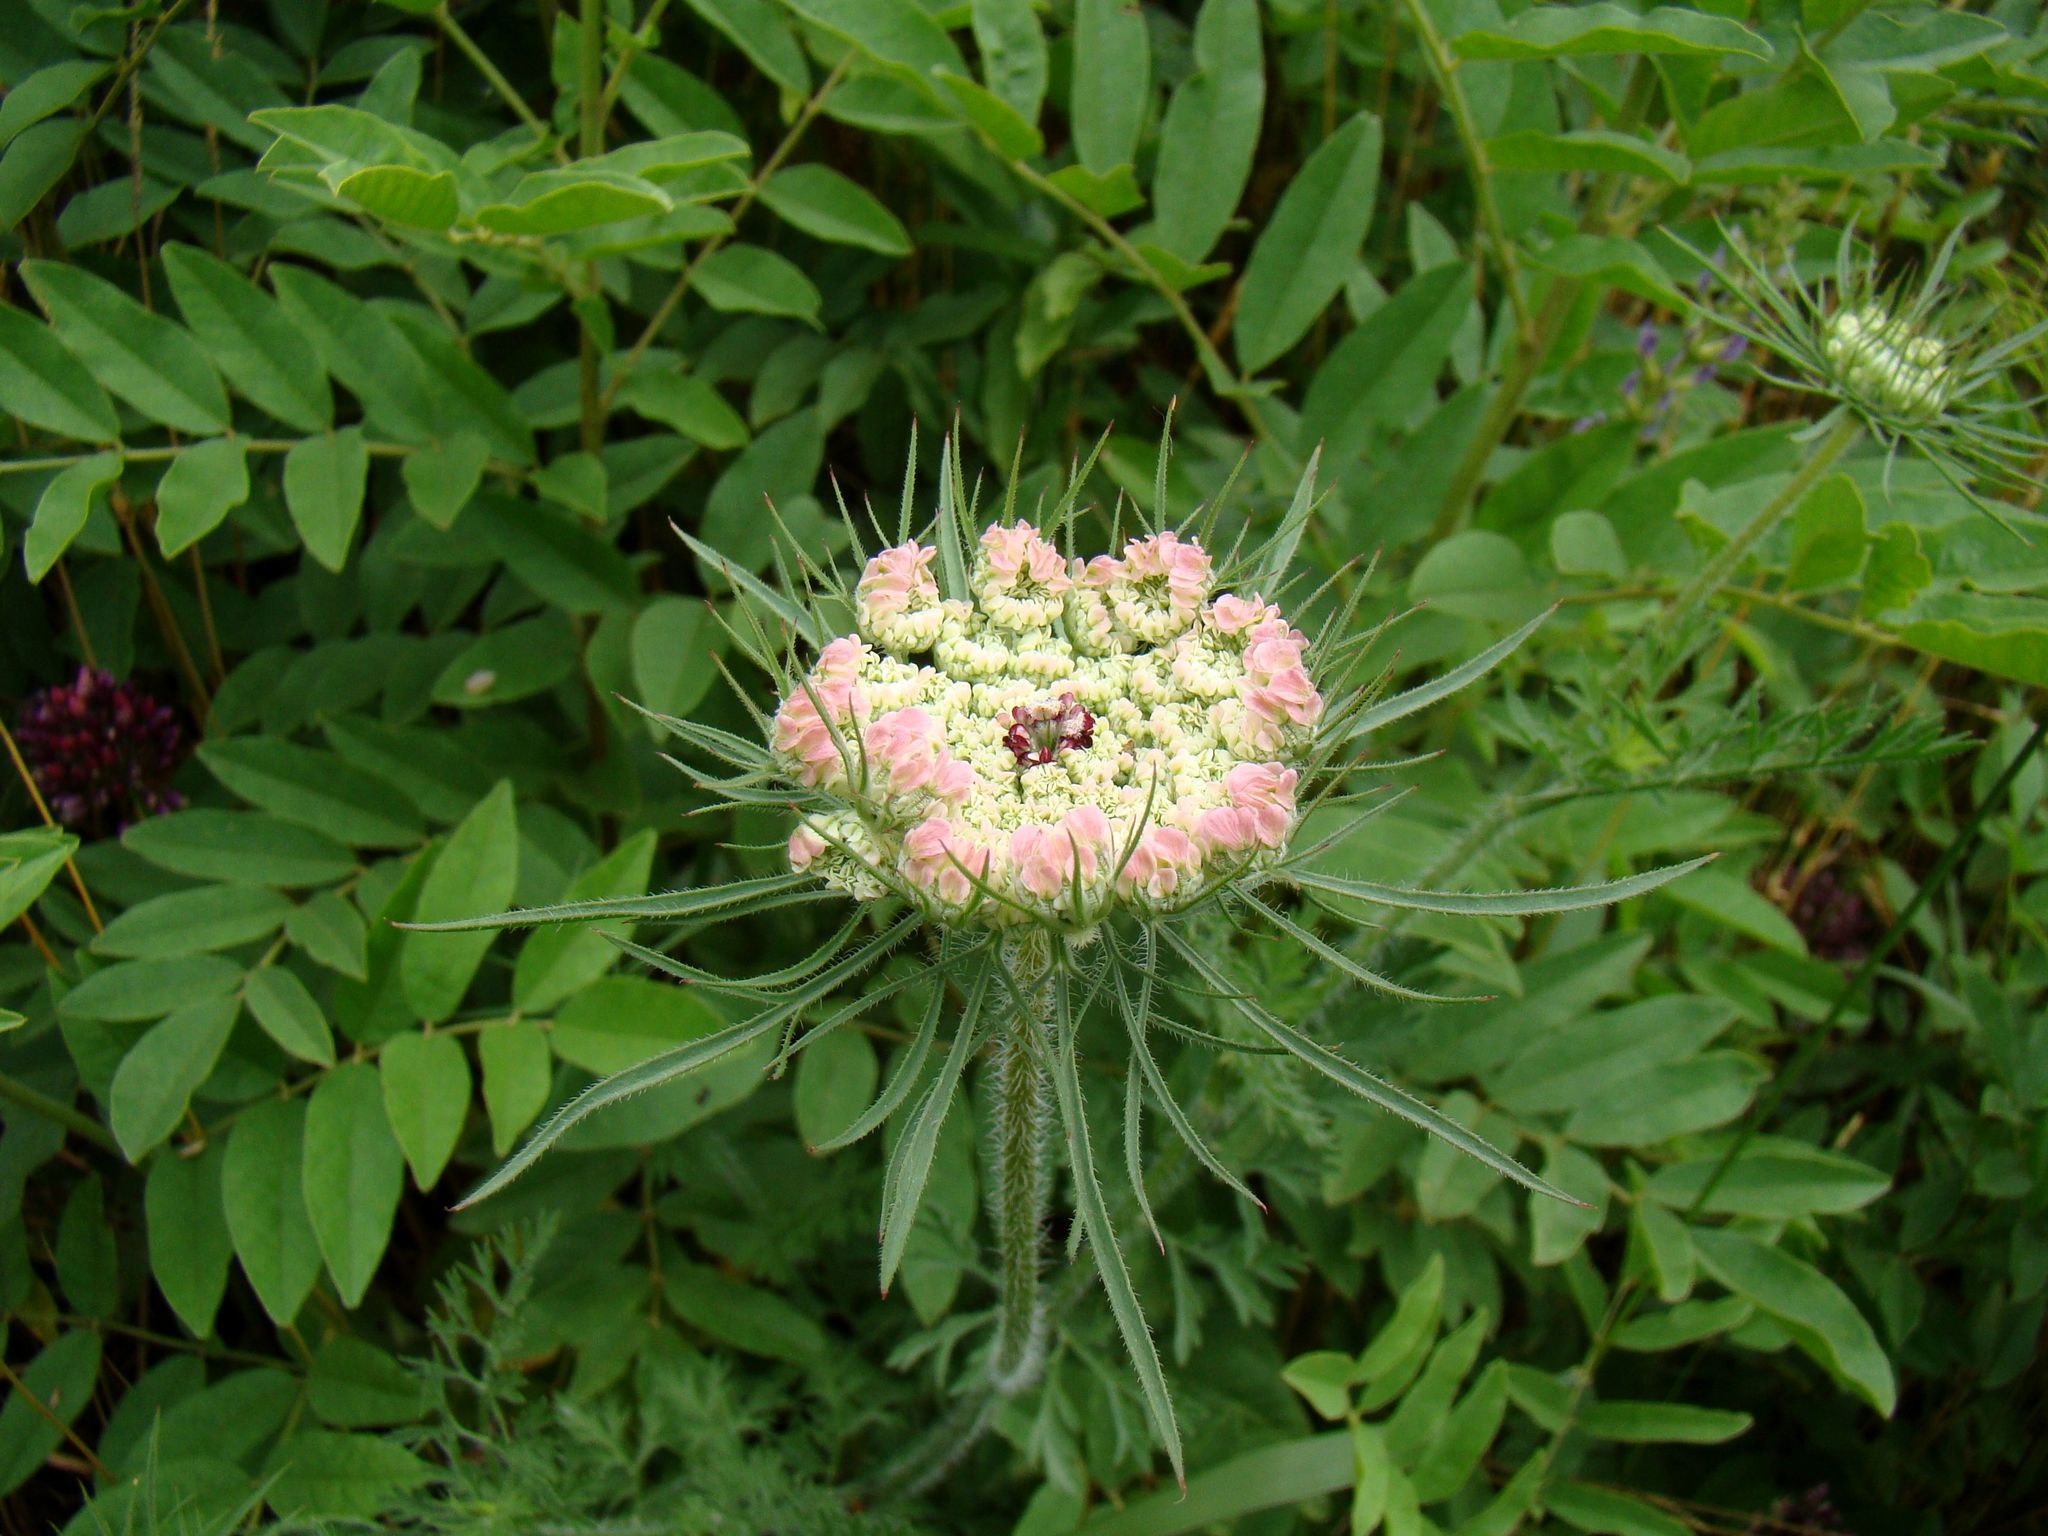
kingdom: Plantae
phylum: Tracheophyta
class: Magnoliopsida
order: Apiales
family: Apiaceae
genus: Daucus
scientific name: Daucus carota
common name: Wild carrot
